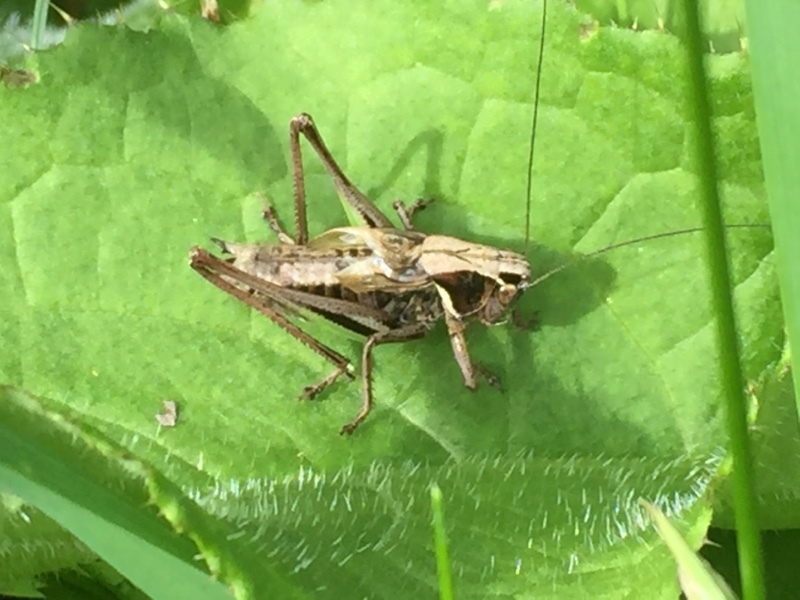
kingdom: Animalia
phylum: Arthropoda
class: Insecta
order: Orthoptera
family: Tettigoniidae
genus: Metrioptera
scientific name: Metrioptera brachyptera
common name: Bog bush-cricket
